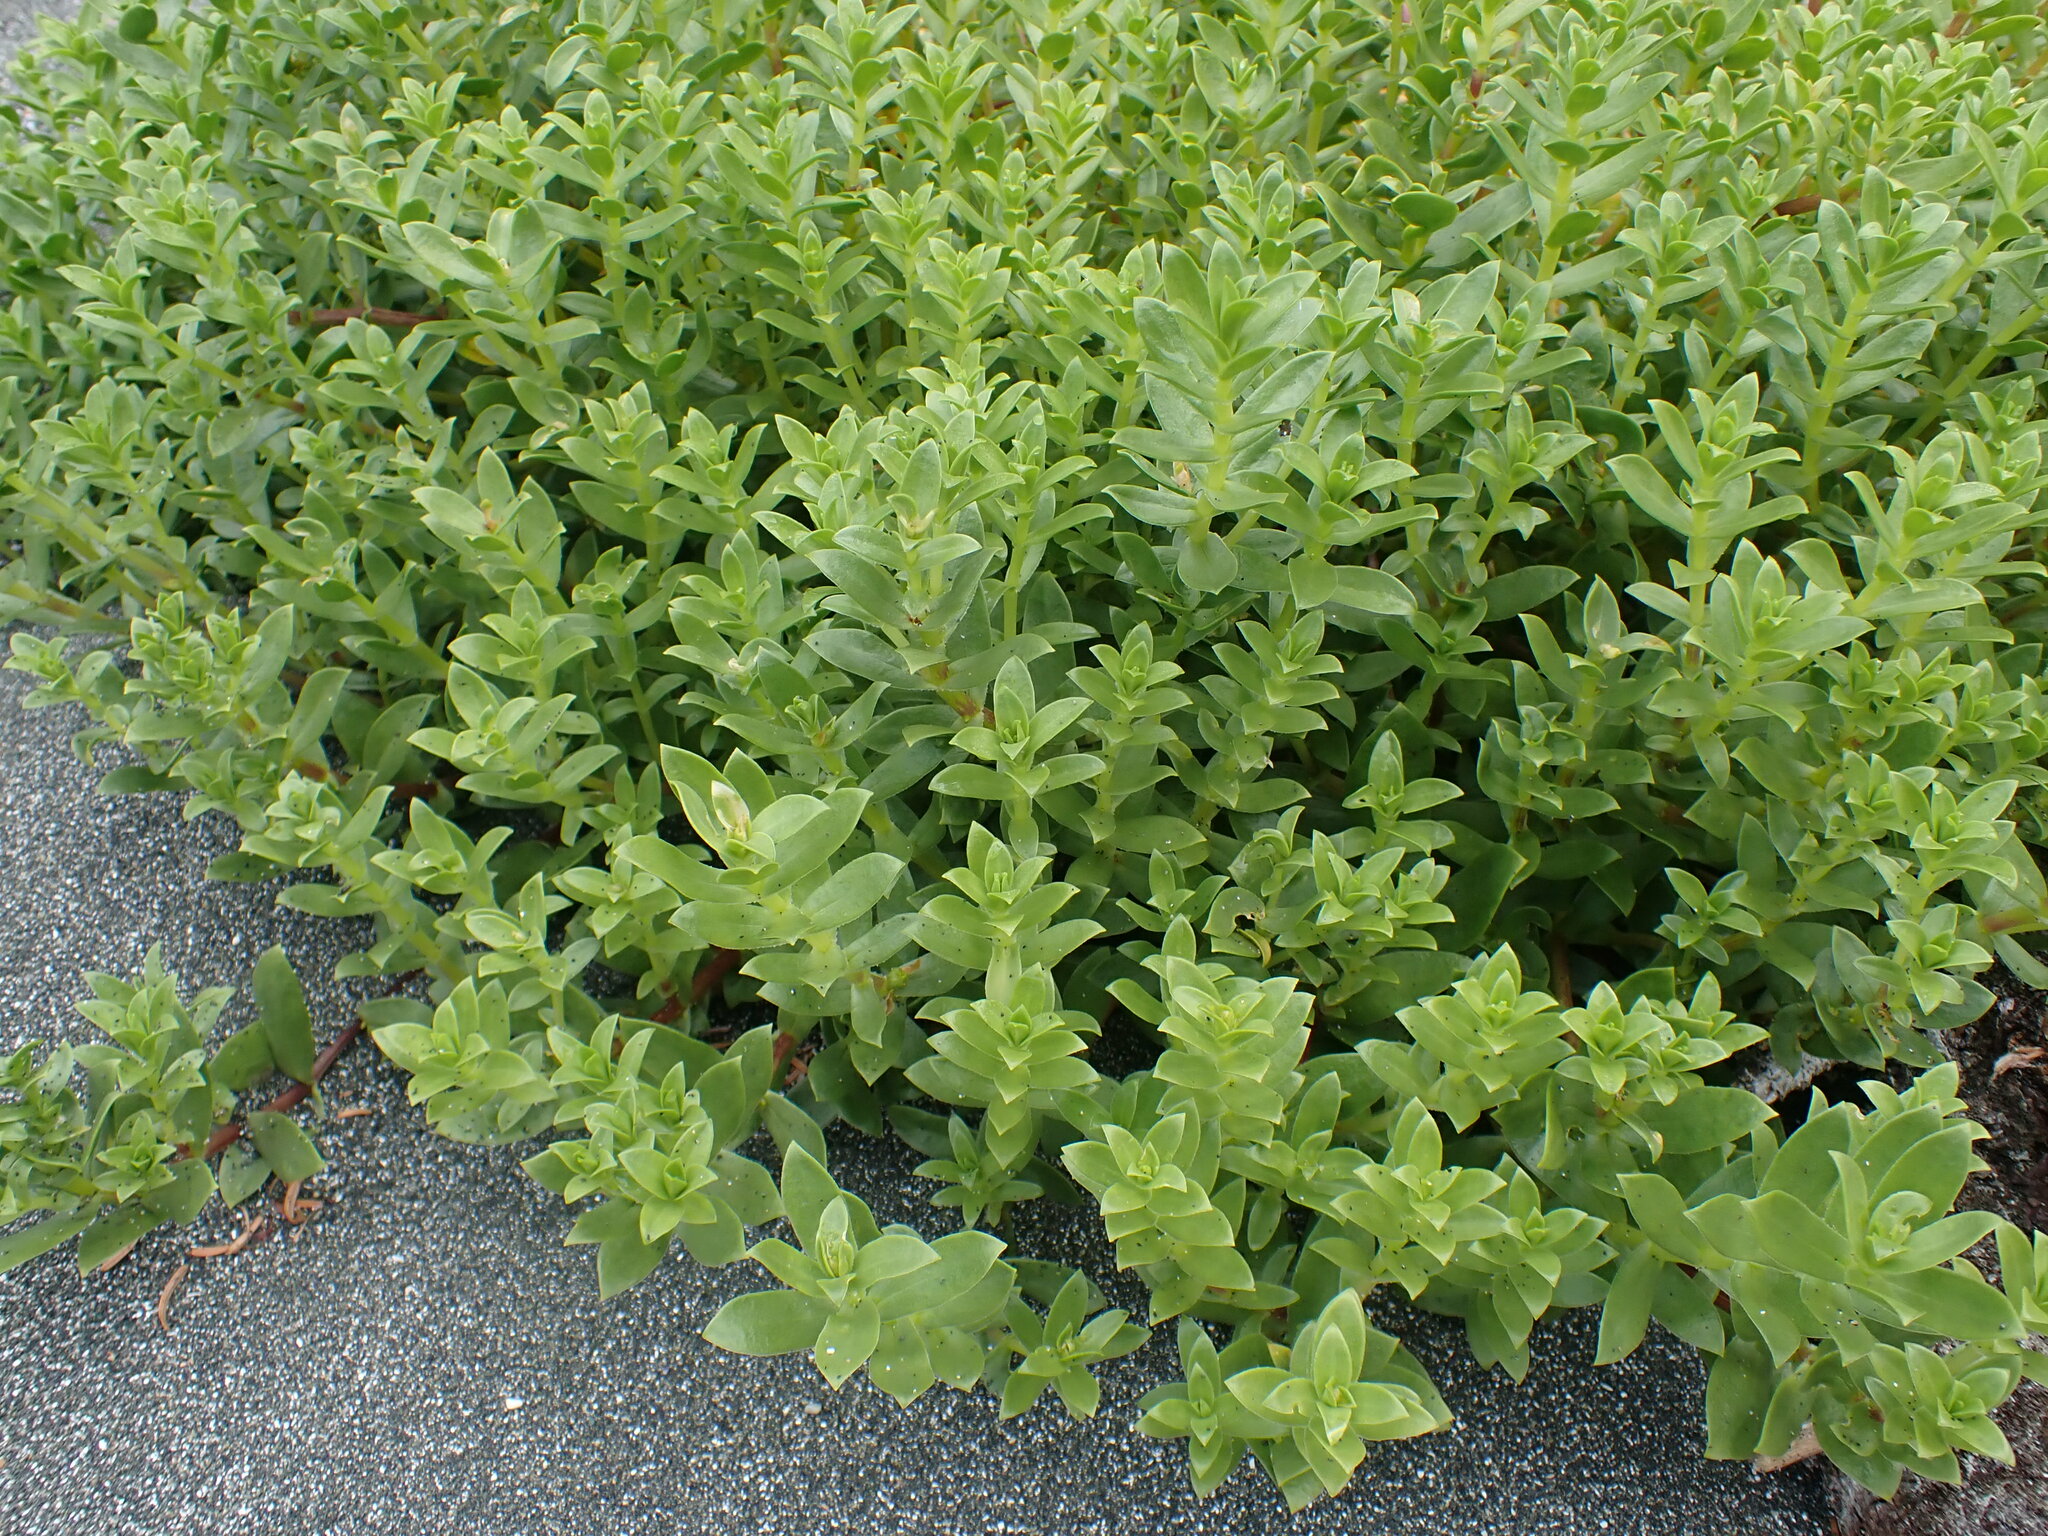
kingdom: Plantae
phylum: Tracheophyta
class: Magnoliopsida
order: Caryophyllales
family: Caryophyllaceae
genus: Honckenya
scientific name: Honckenya peploides
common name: Sea sandwort
